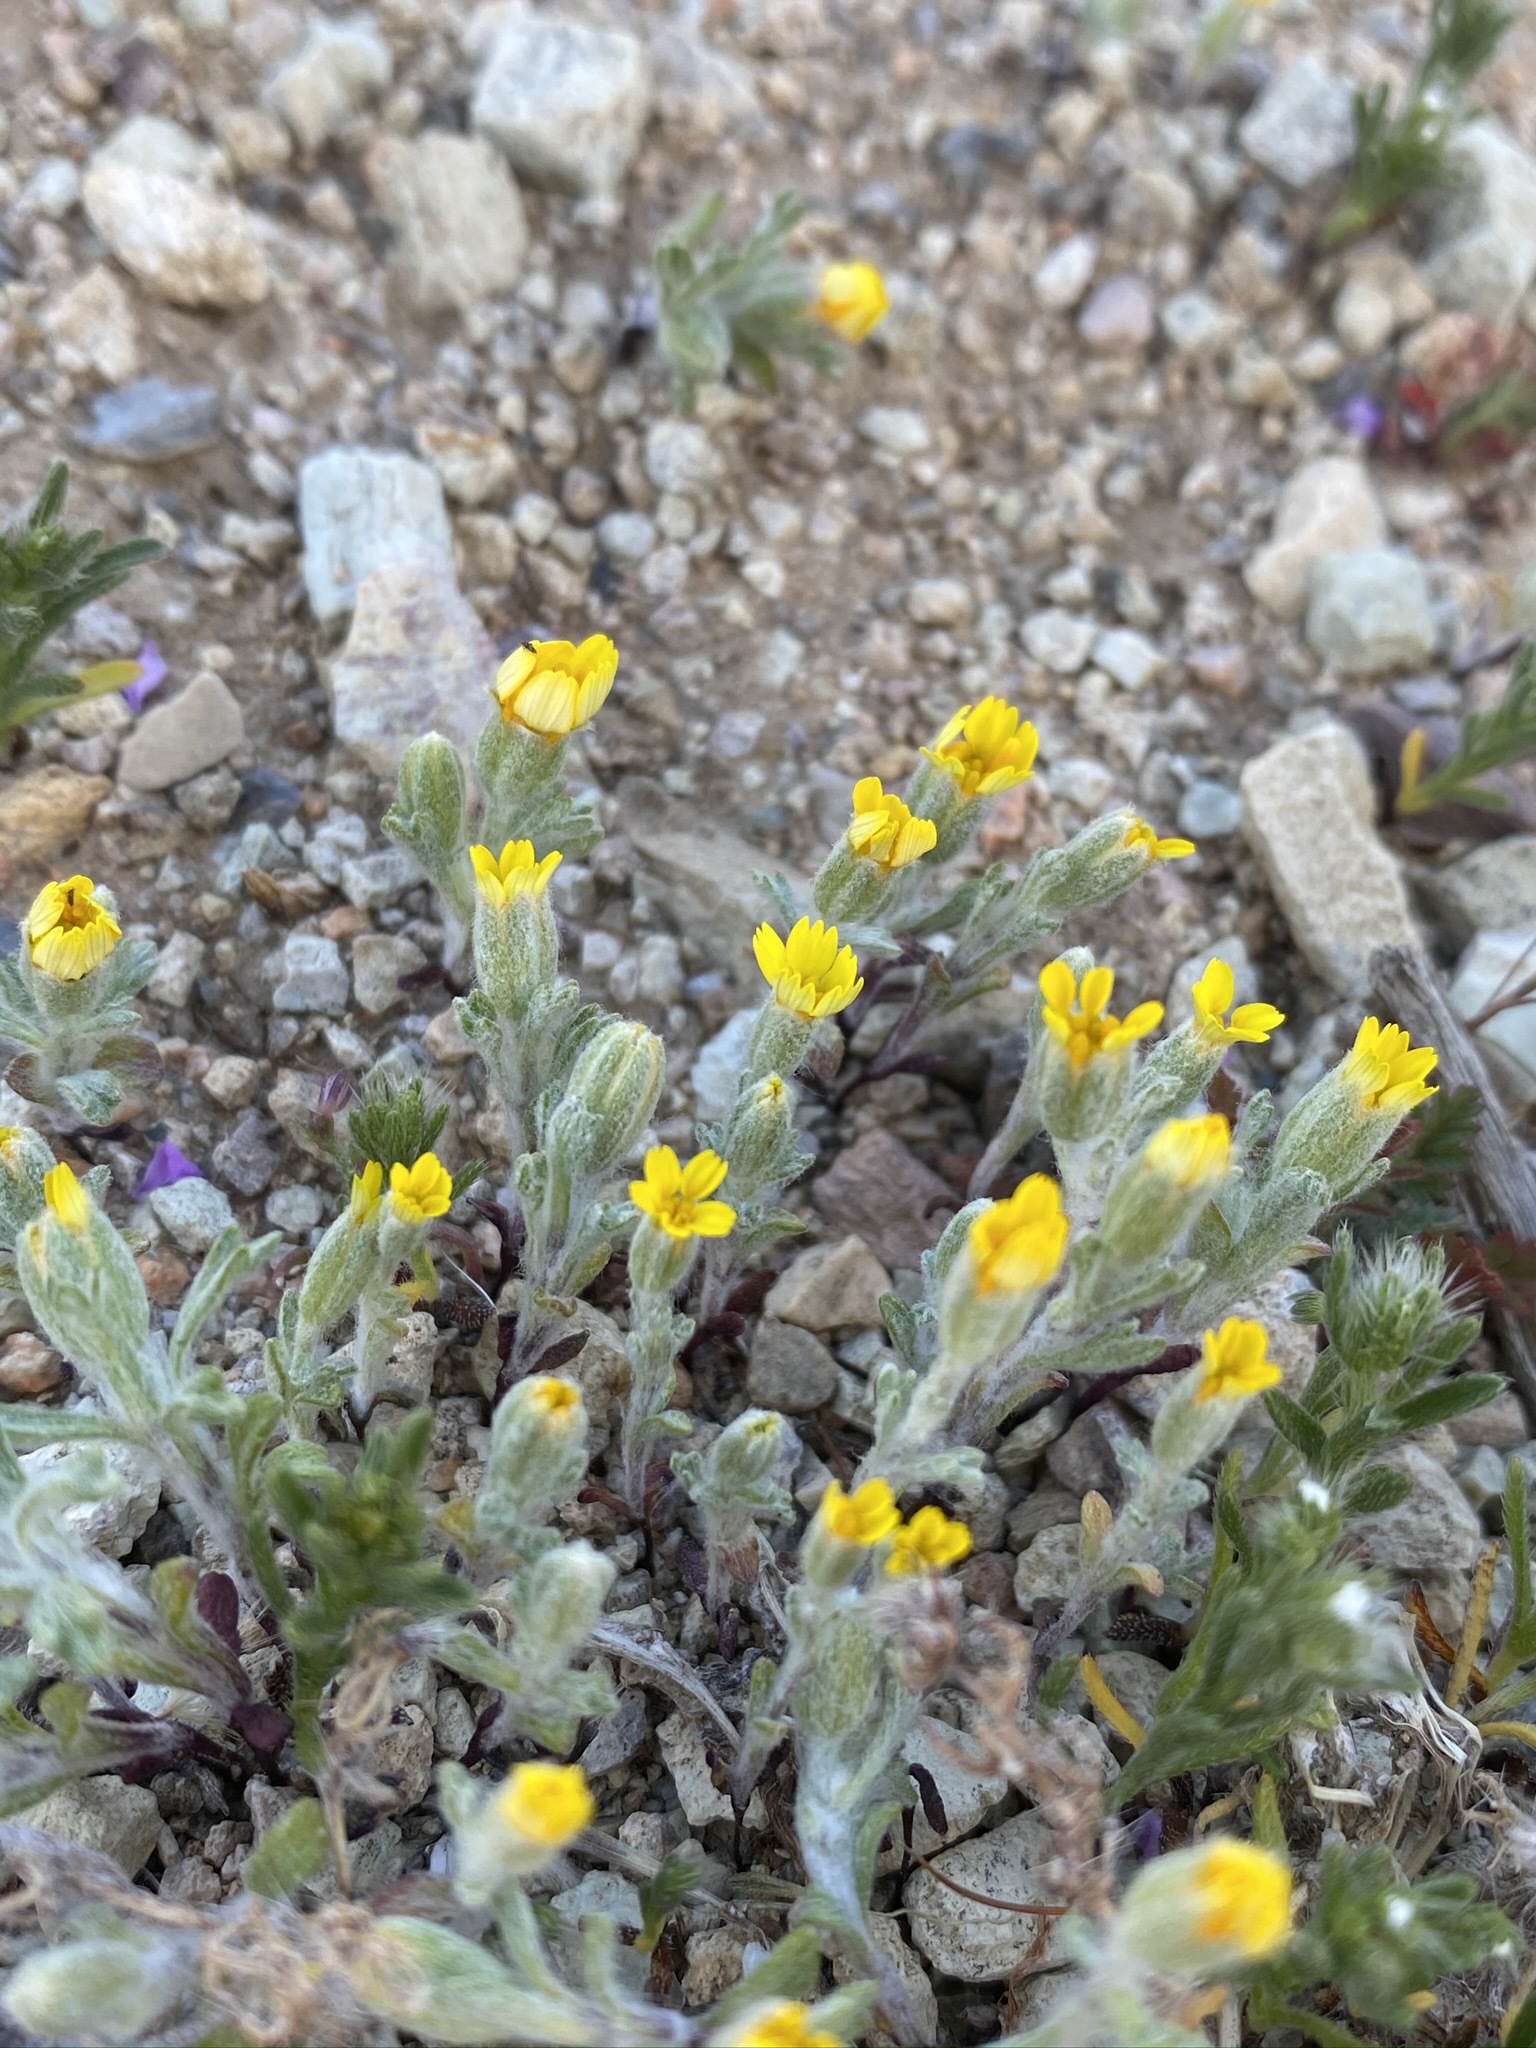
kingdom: Plantae
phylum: Tracheophyta
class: Magnoliopsida
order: Asterales
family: Asteraceae
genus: Syntrichopappus
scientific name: Syntrichopappus fremontii
